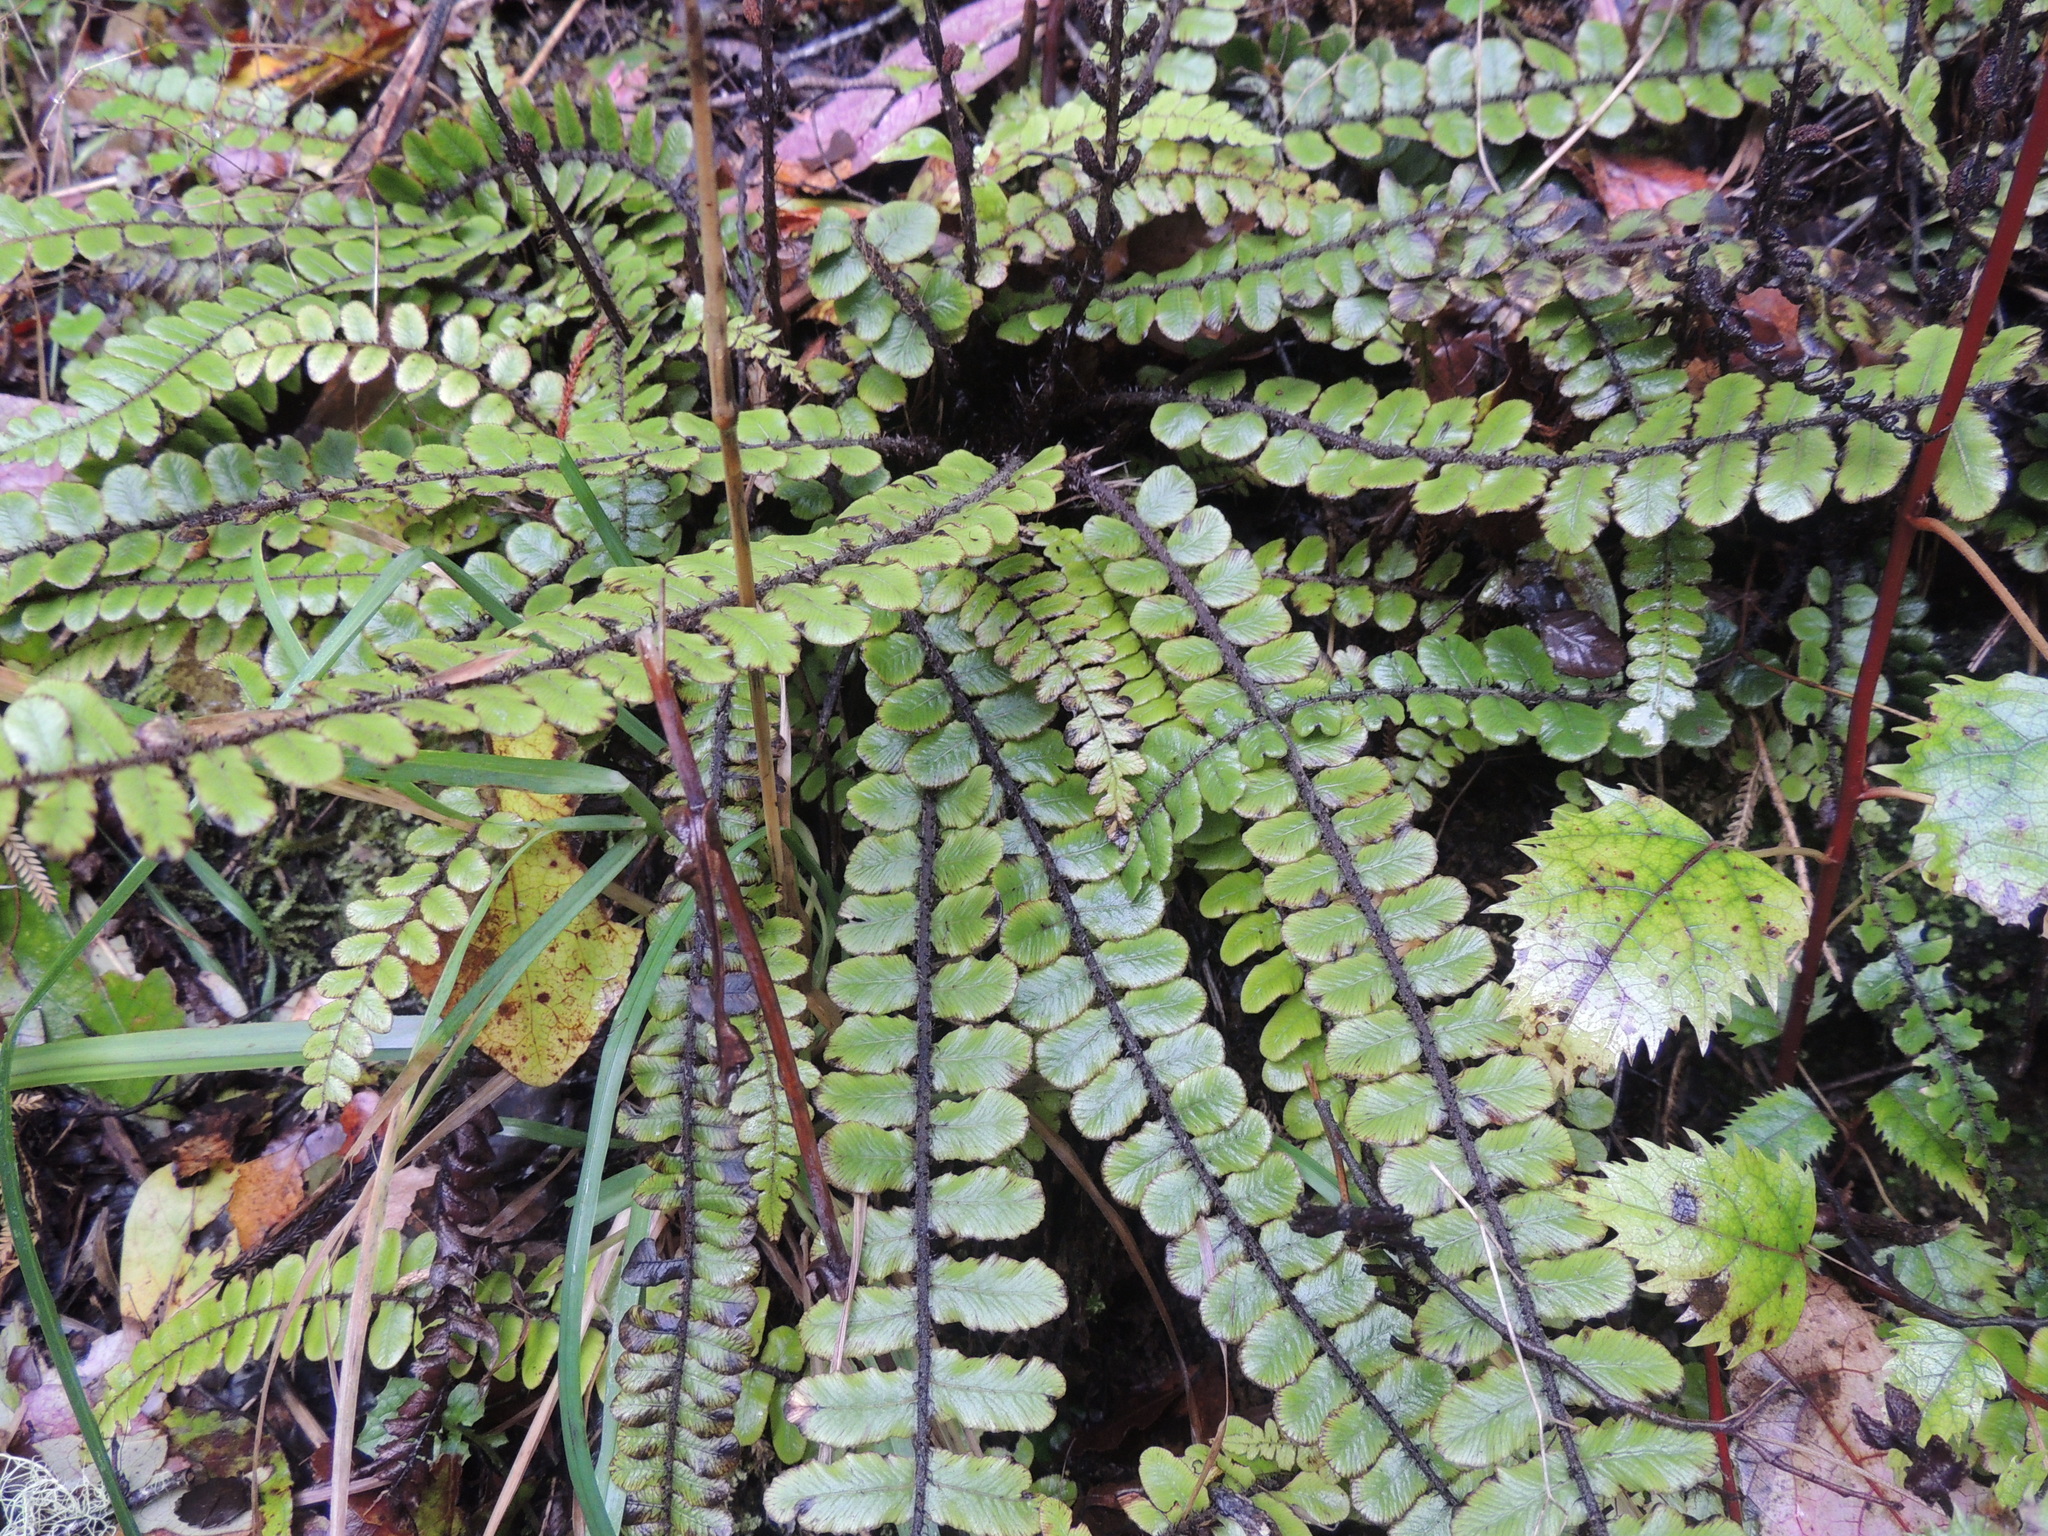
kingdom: Plantae
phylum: Tracheophyta
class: Polypodiopsida
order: Polypodiales
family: Blechnaceae
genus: Cranfillia
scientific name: Cranfillia fluviatilis
